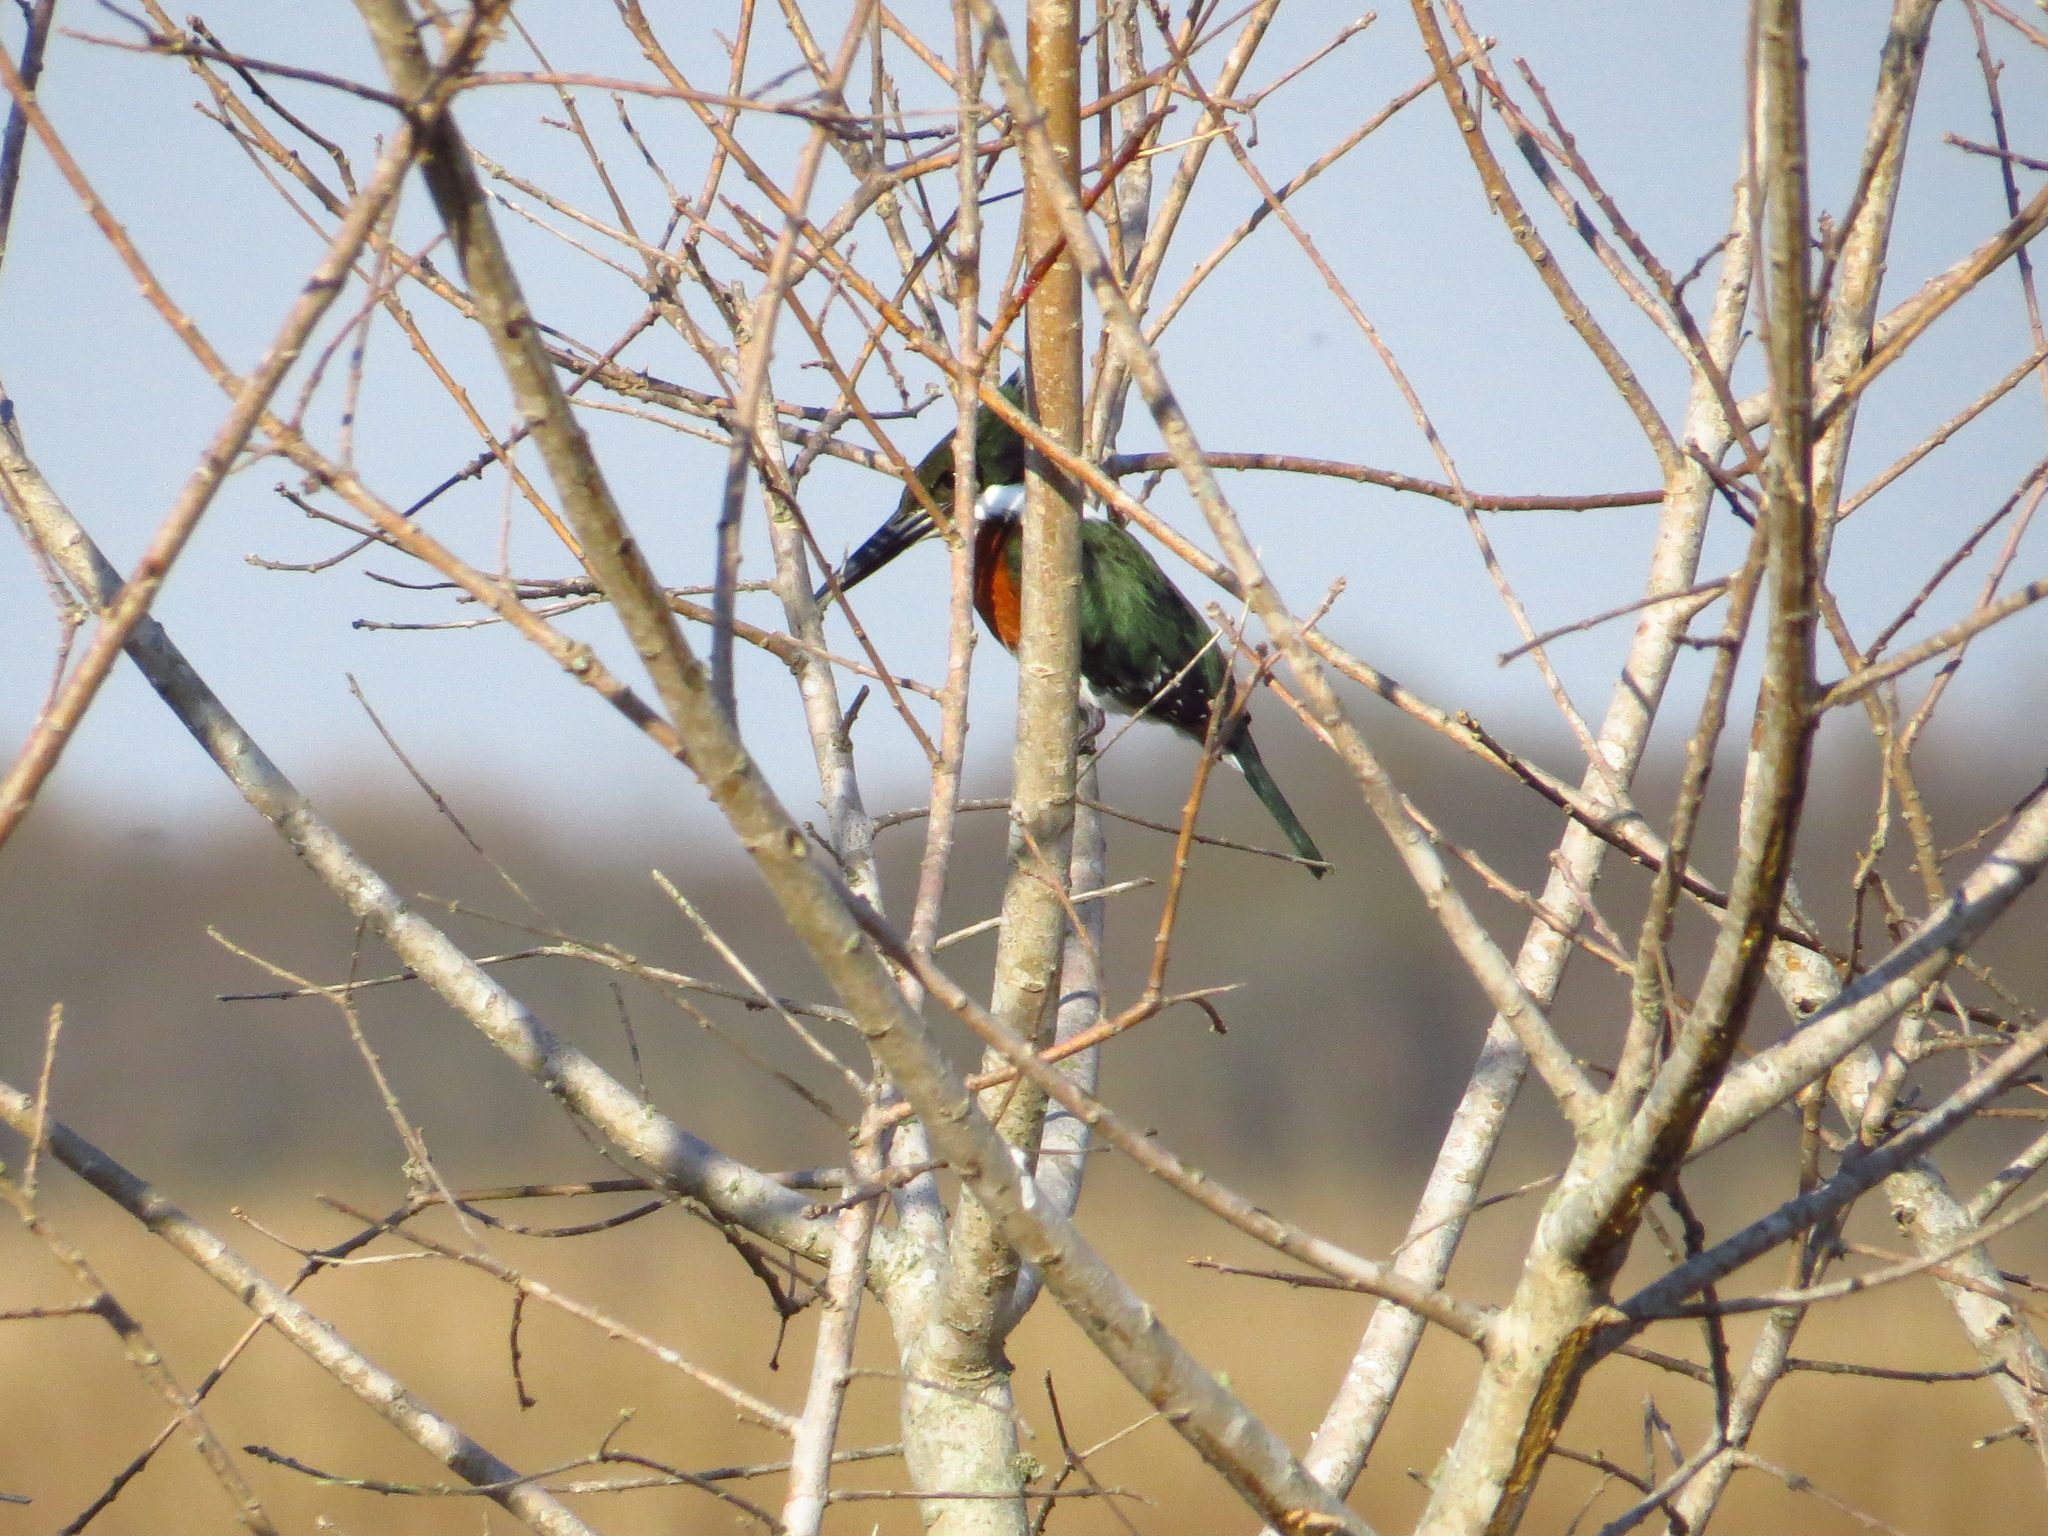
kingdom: Animalia
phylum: Chordata
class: Aves
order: Coraciiformes
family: Alcedinidae
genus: Chloroceryle
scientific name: Chloroceryle americana
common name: Green kingfisher
